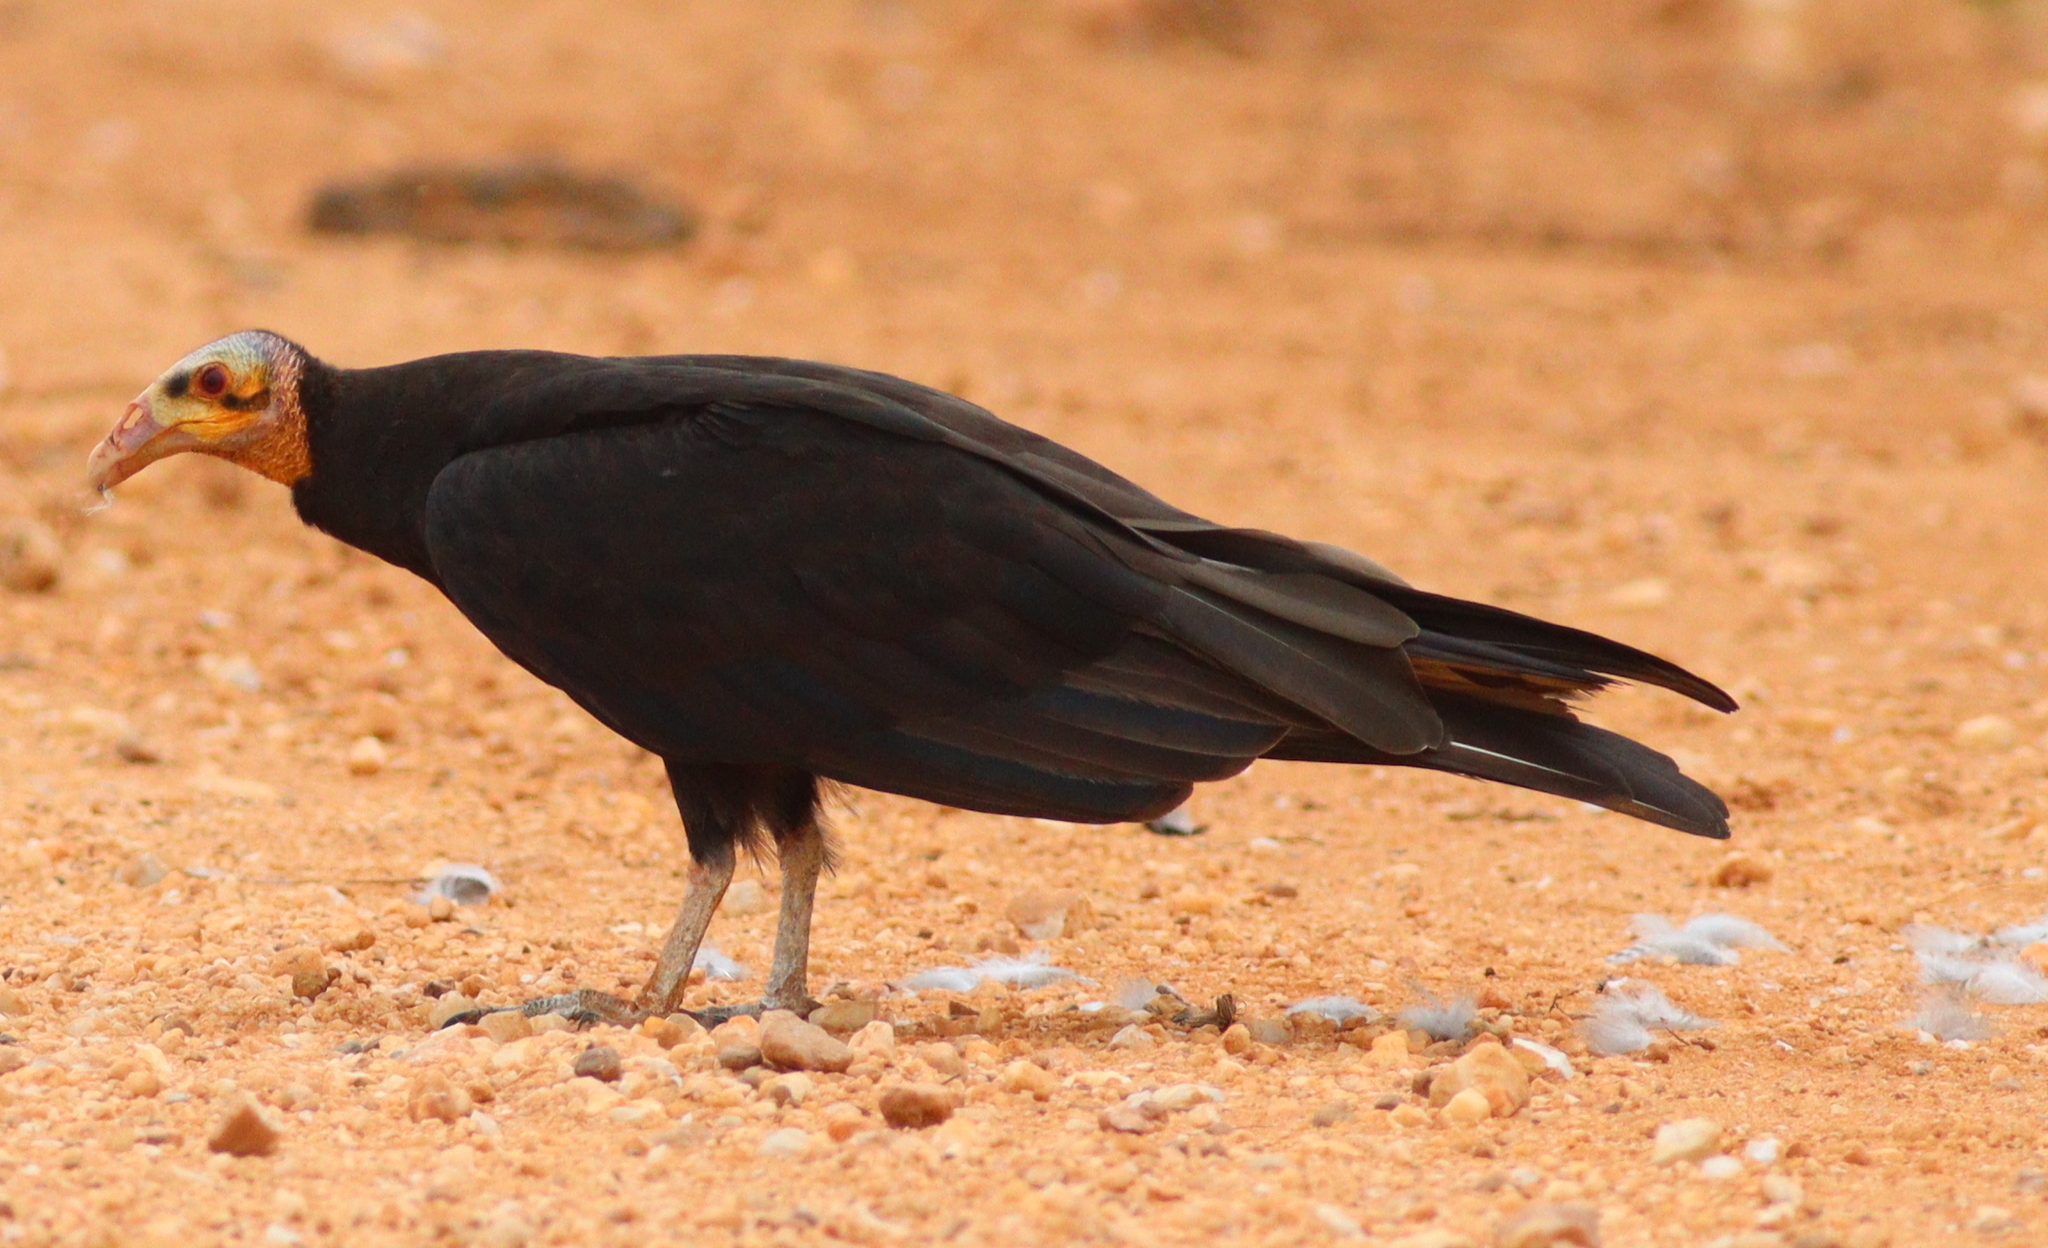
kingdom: Animalia
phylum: Chordata
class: Aves
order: Accipitriformes
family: Cathartidae
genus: Cathartes
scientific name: Cathartes burrovianus
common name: Lesser yellow-headed vulture
